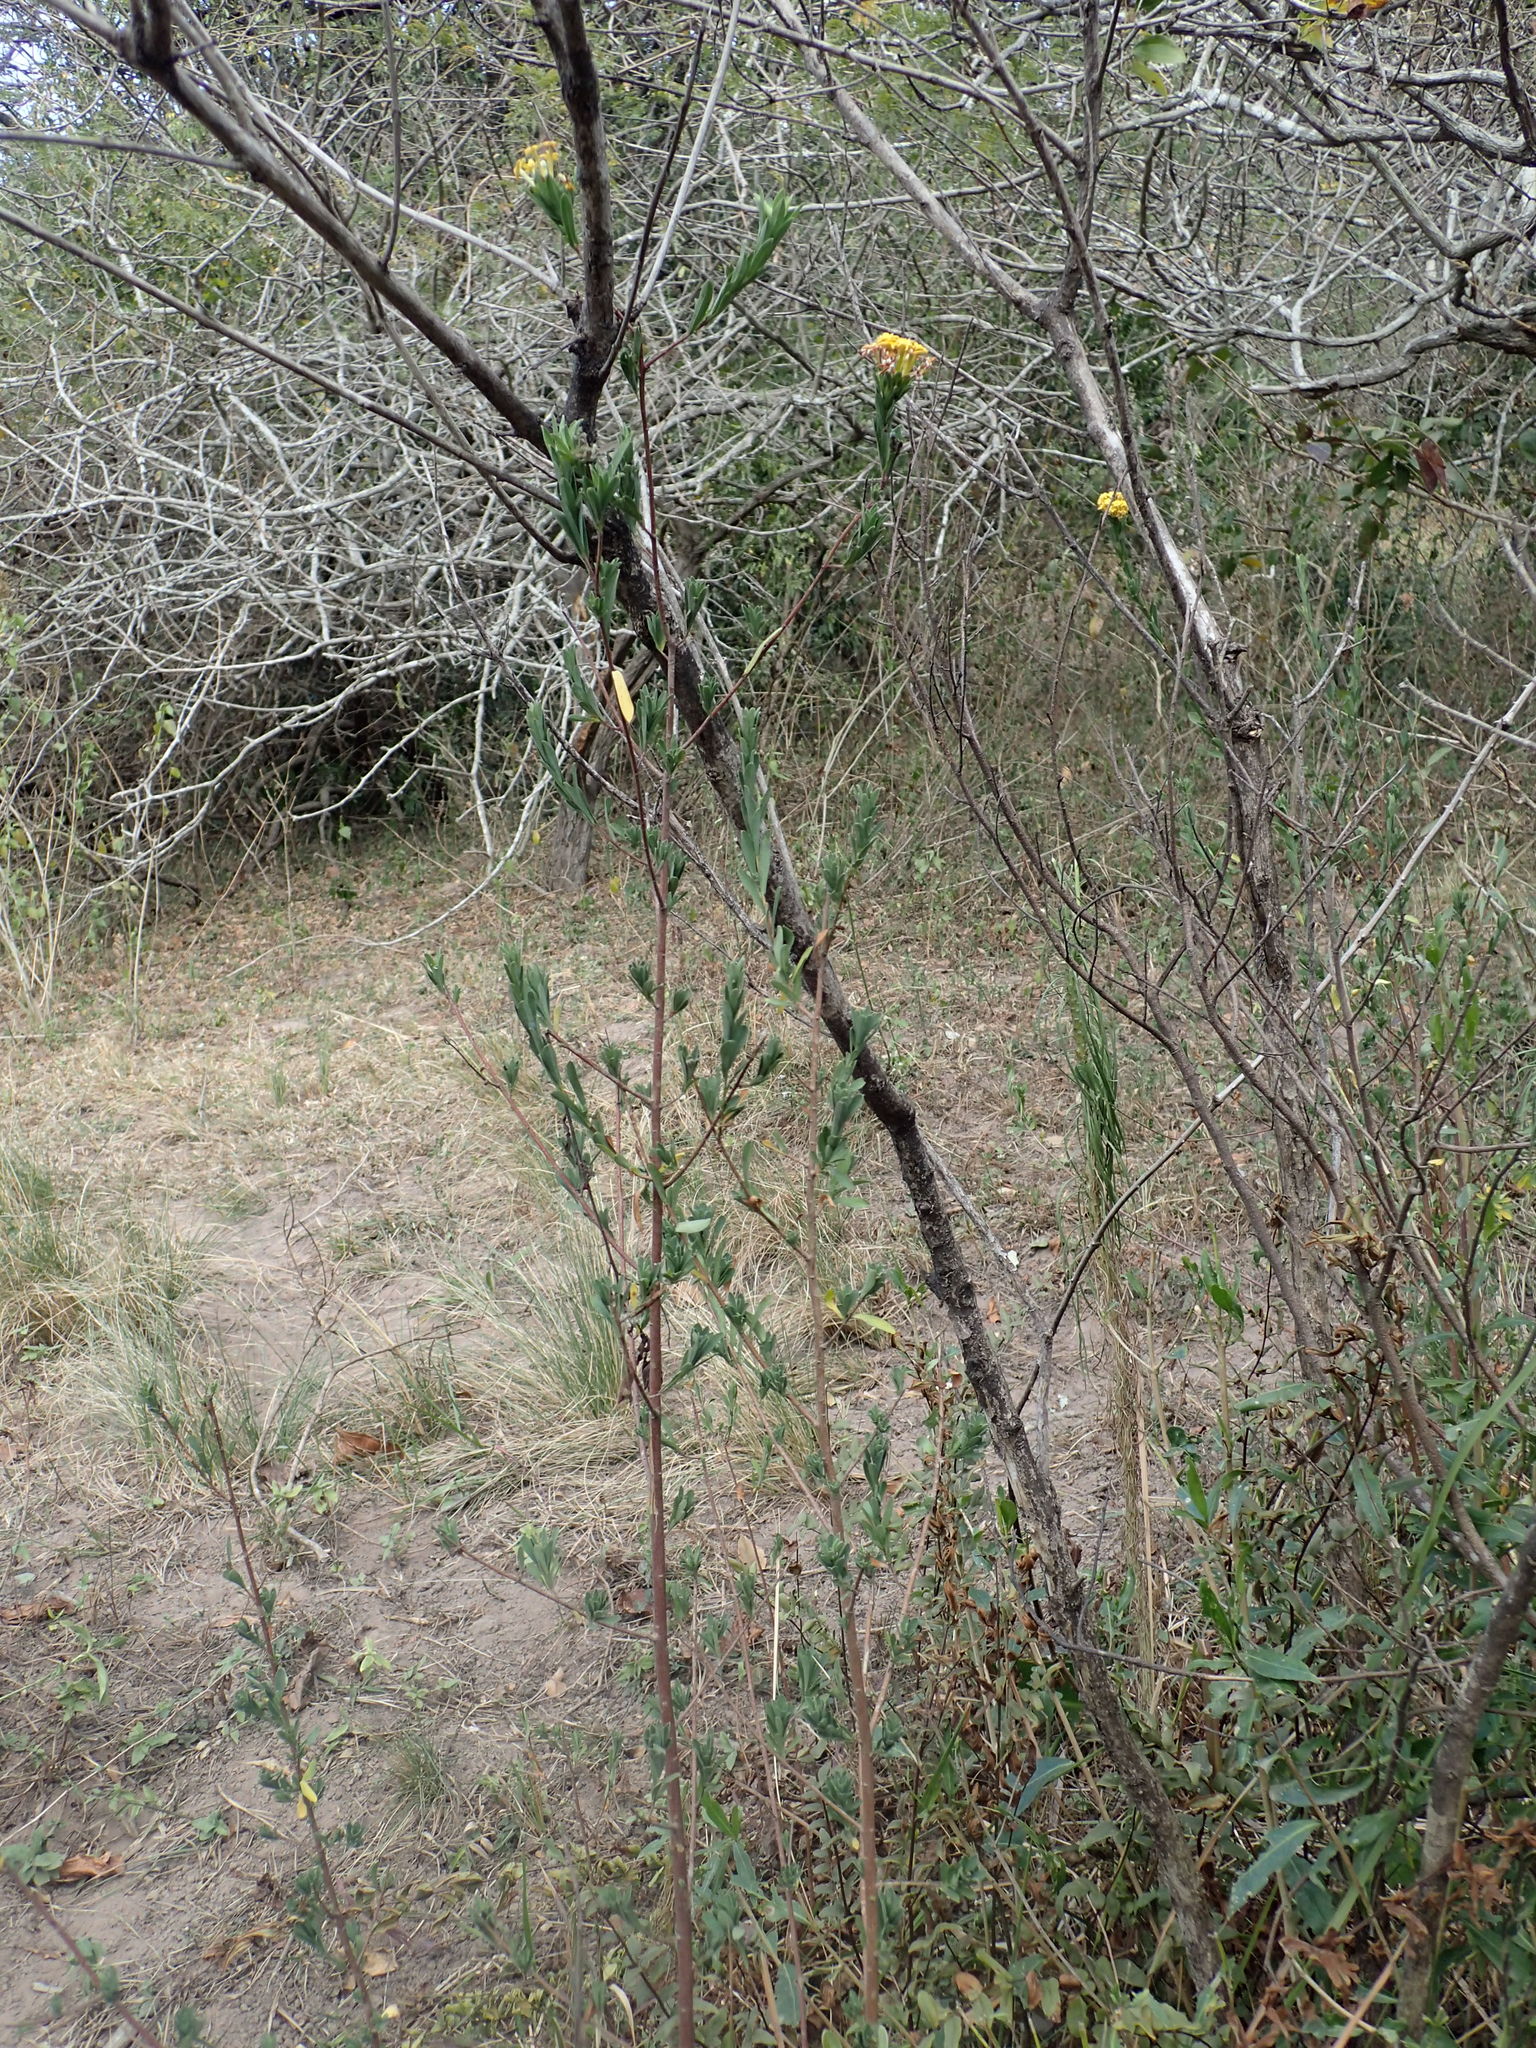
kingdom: Plantae
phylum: Tracheophyta
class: Magnoliopsida
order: Malvales
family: Thymelaeaceae
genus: Gnidia
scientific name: Gnidia macropetala
